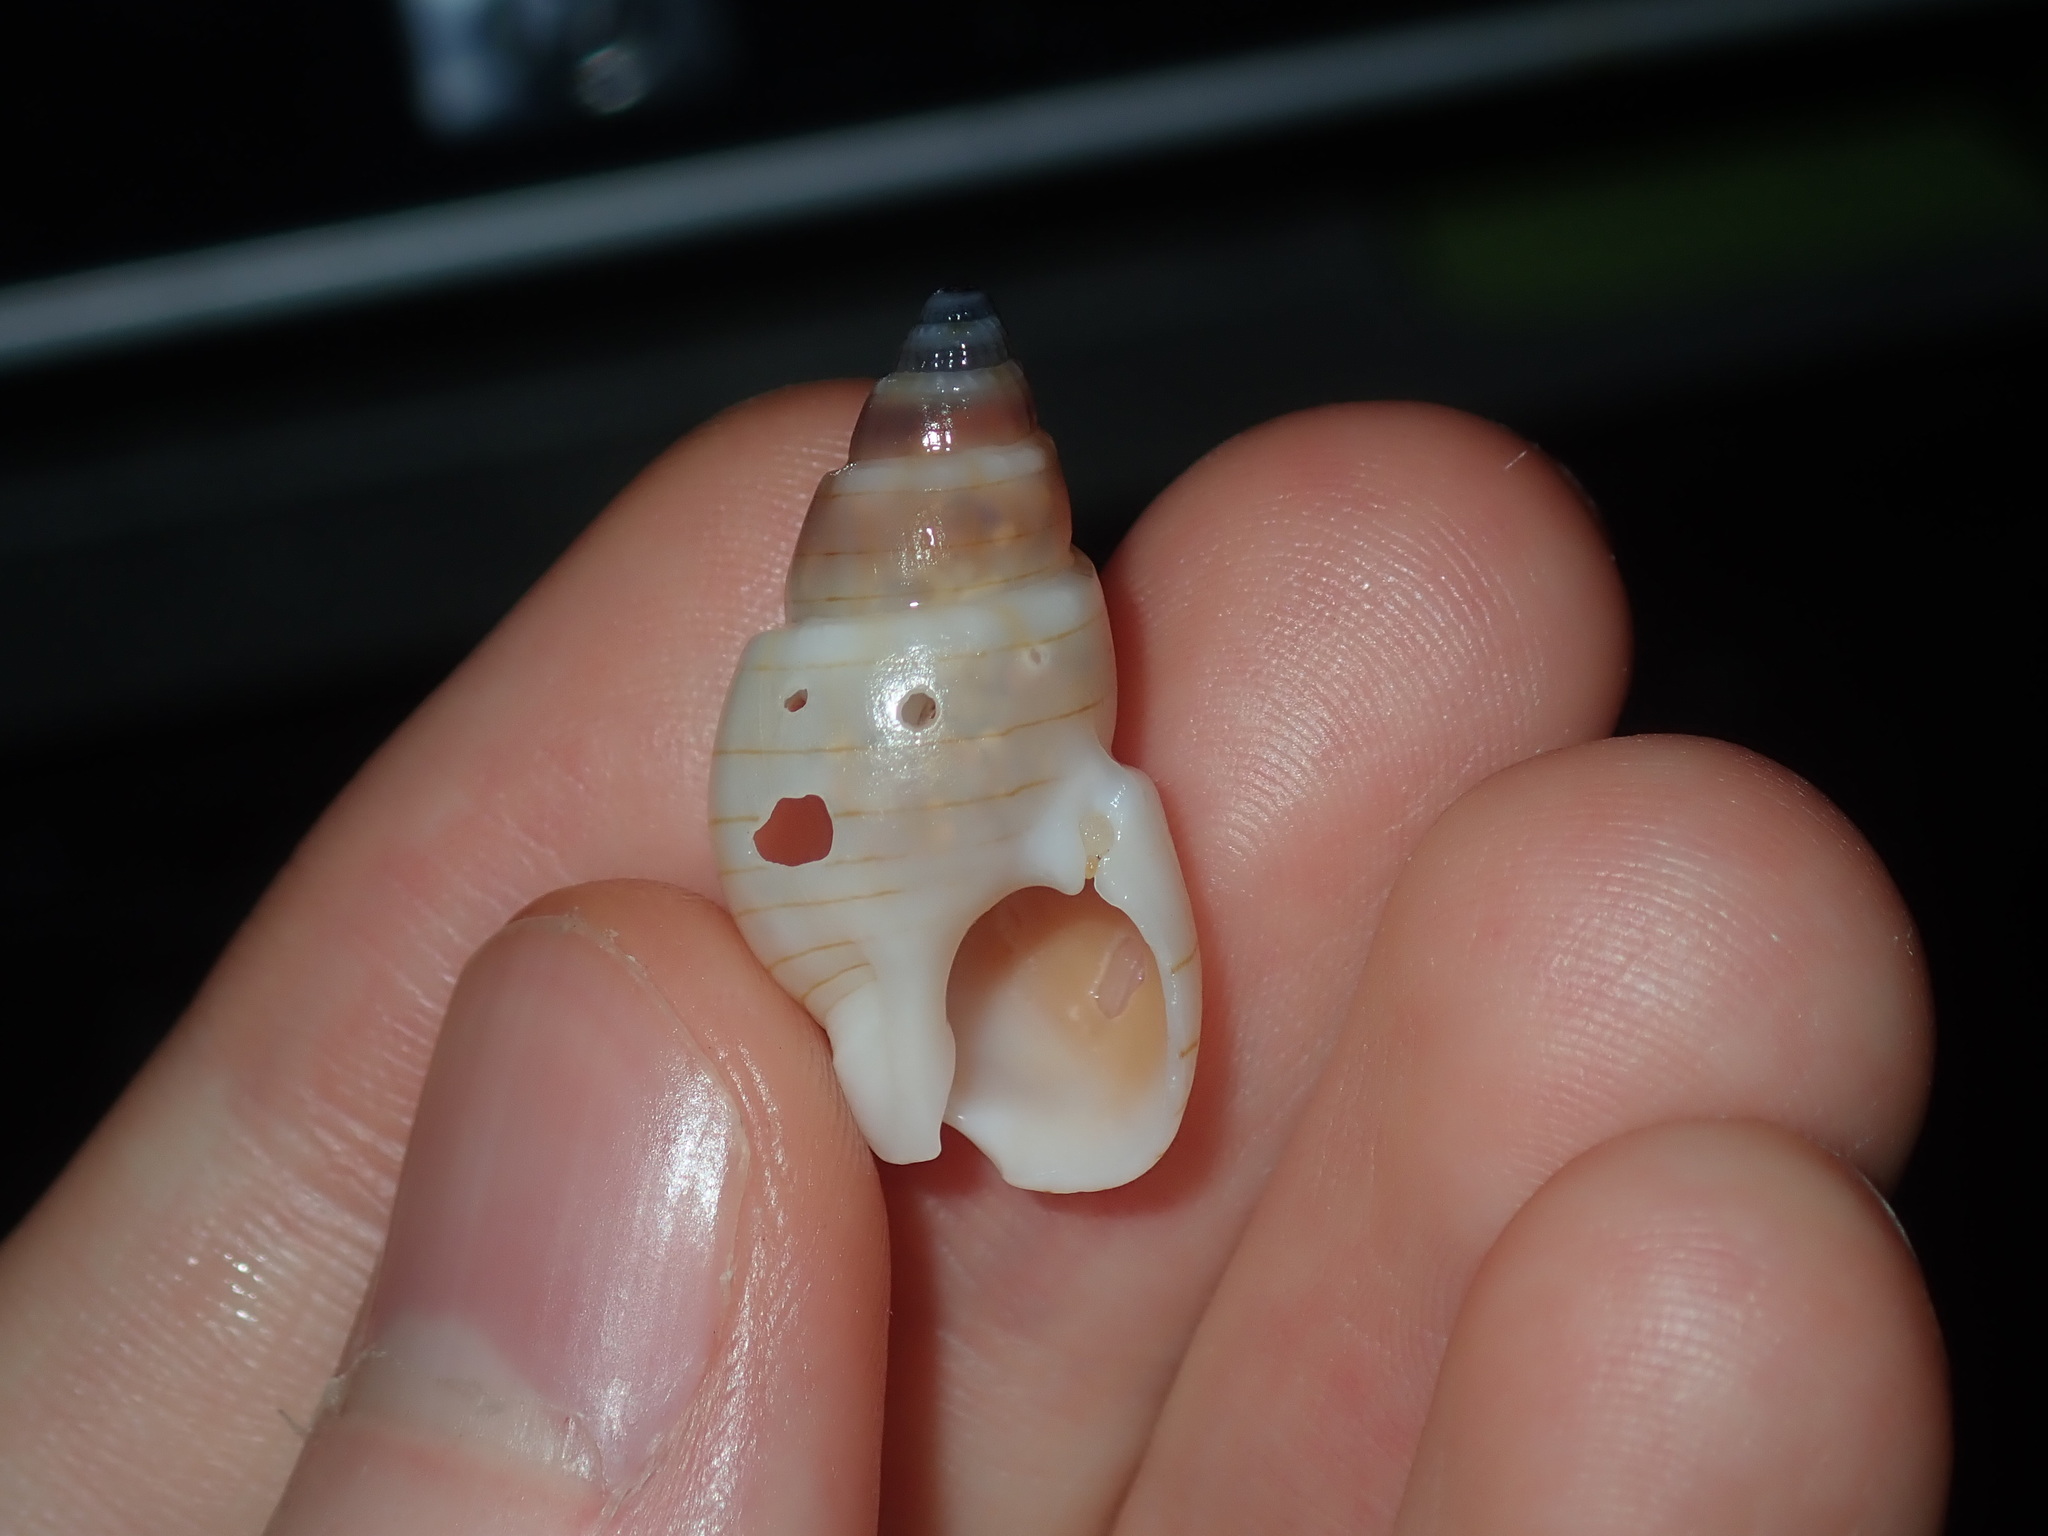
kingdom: Animalia
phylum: Mollusca
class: Gastropoda
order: Neogastropoda
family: Nassariidae
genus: Nassarius
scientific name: Nassarius particeps
